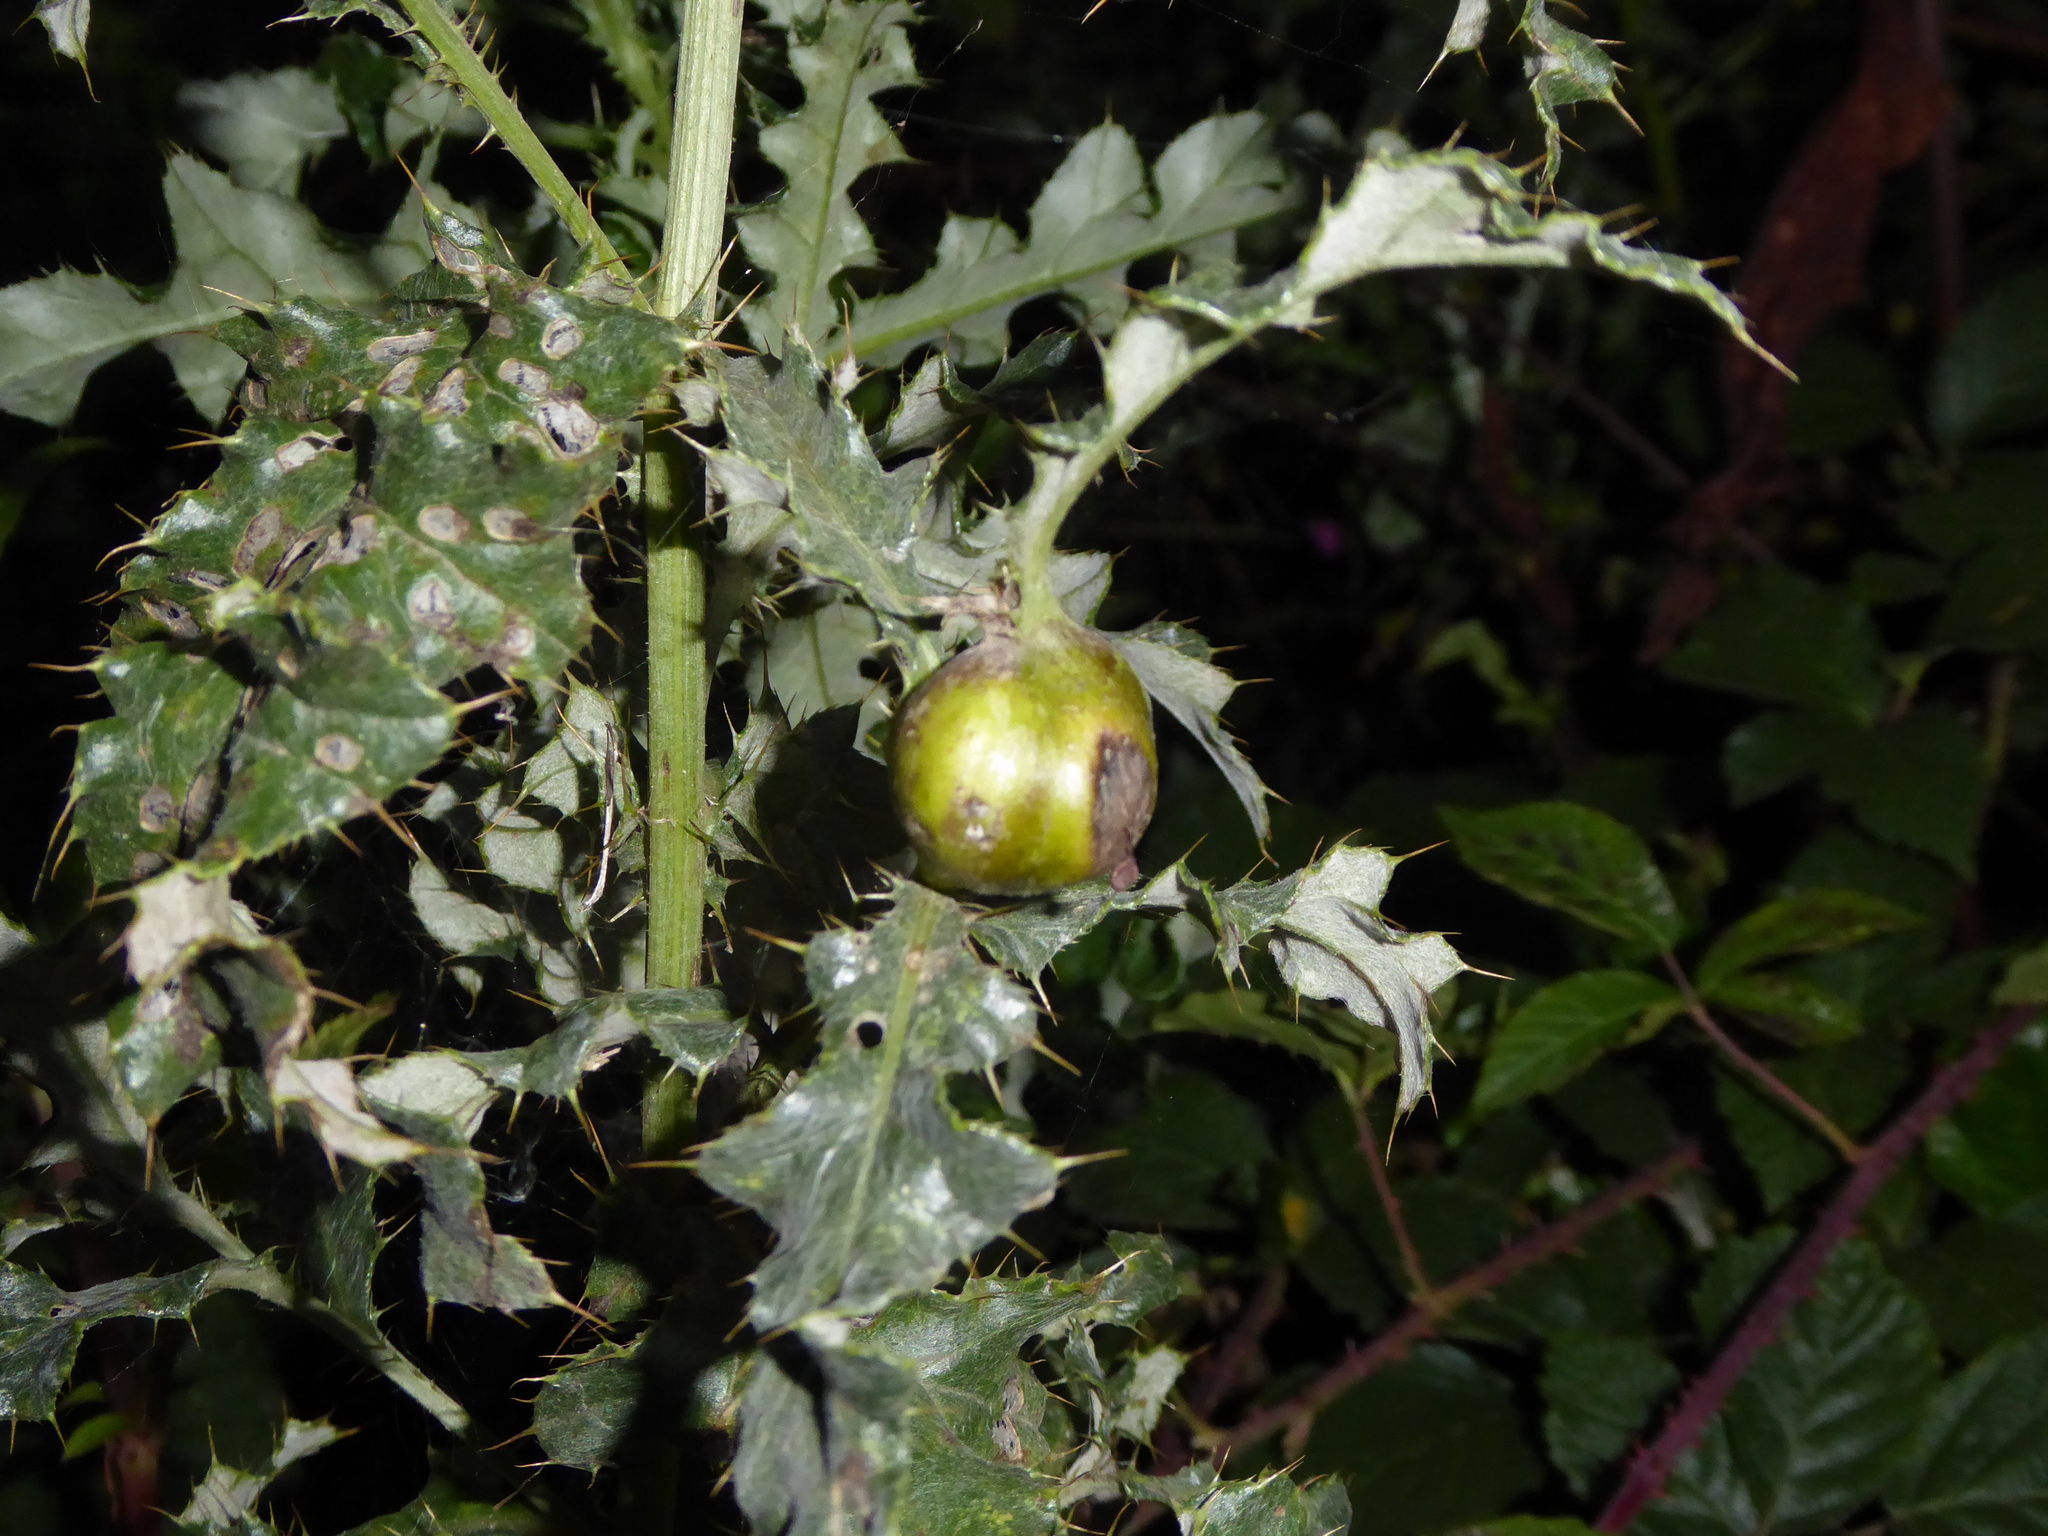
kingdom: Animalia
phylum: Arthropoda
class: Insecta
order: Diptera
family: Tephritidae
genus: Urophora
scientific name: Urophora cardui
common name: Fruit fly
